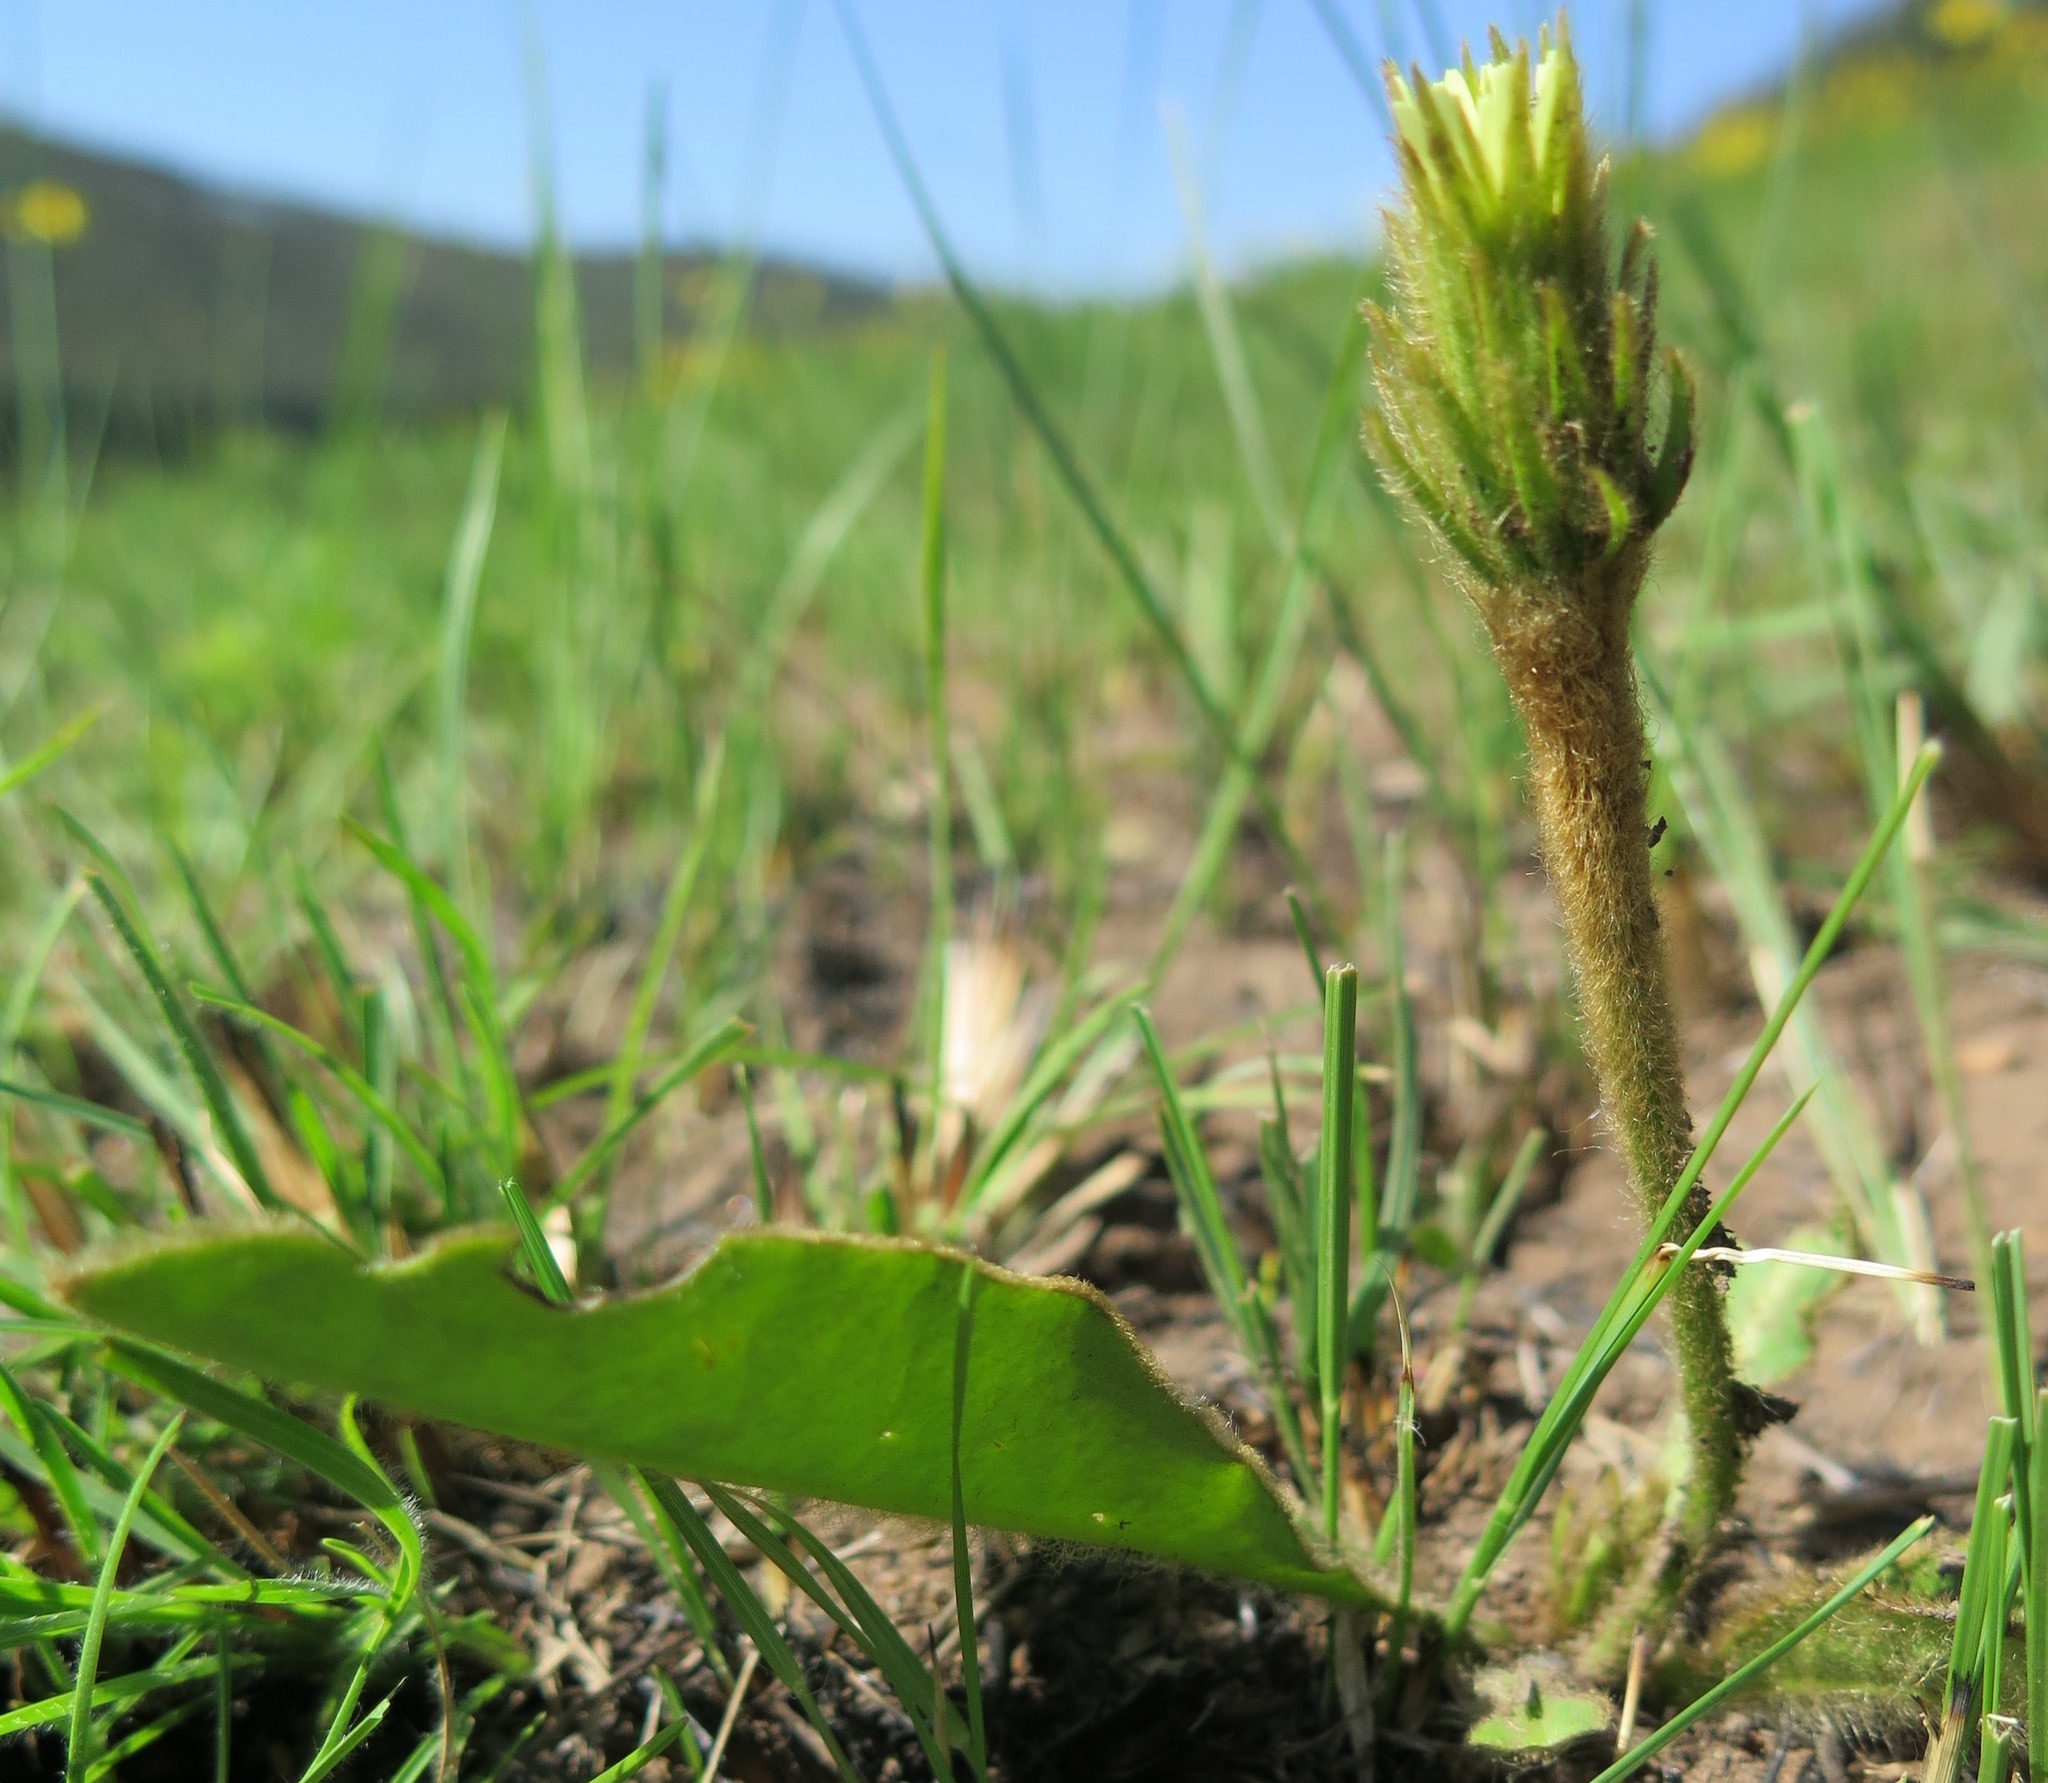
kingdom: Plantae
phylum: Tracheophyta
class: Magnoliopsida
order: Asterales
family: Asteraceae
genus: Piloselloides
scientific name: Piloselloides hirsuta
